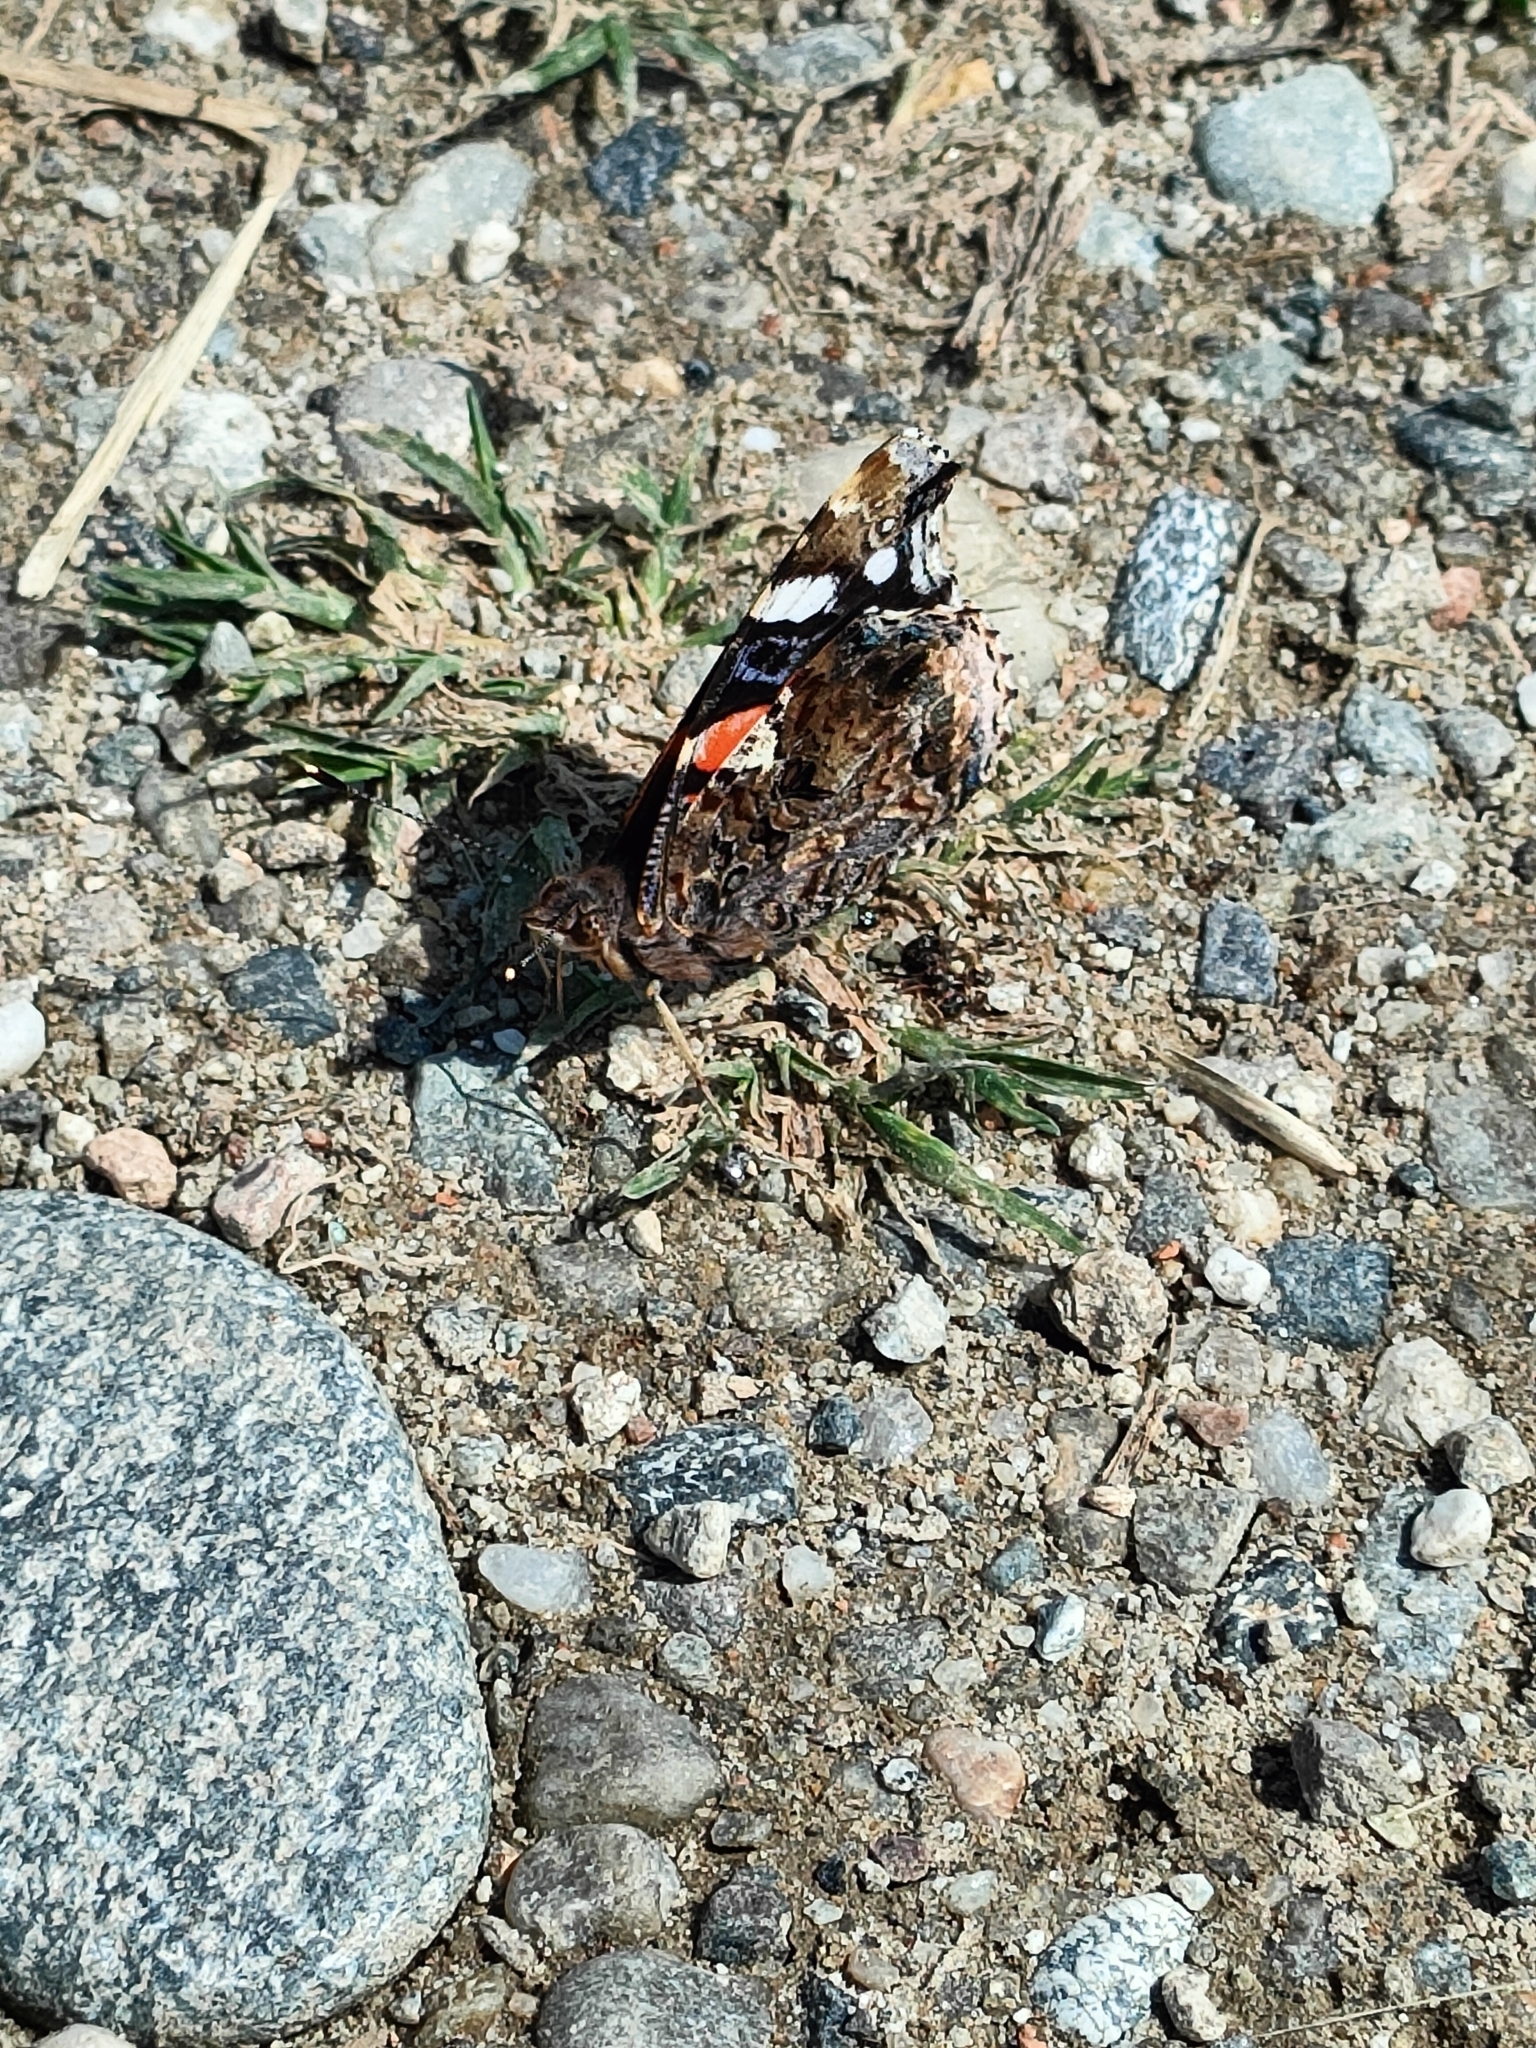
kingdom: Animalia
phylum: Arthropoda
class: Insecta
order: Lepidoptera
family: Nymphalidae
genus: Vanessa
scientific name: Vanessa atalanta
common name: Red admiral
